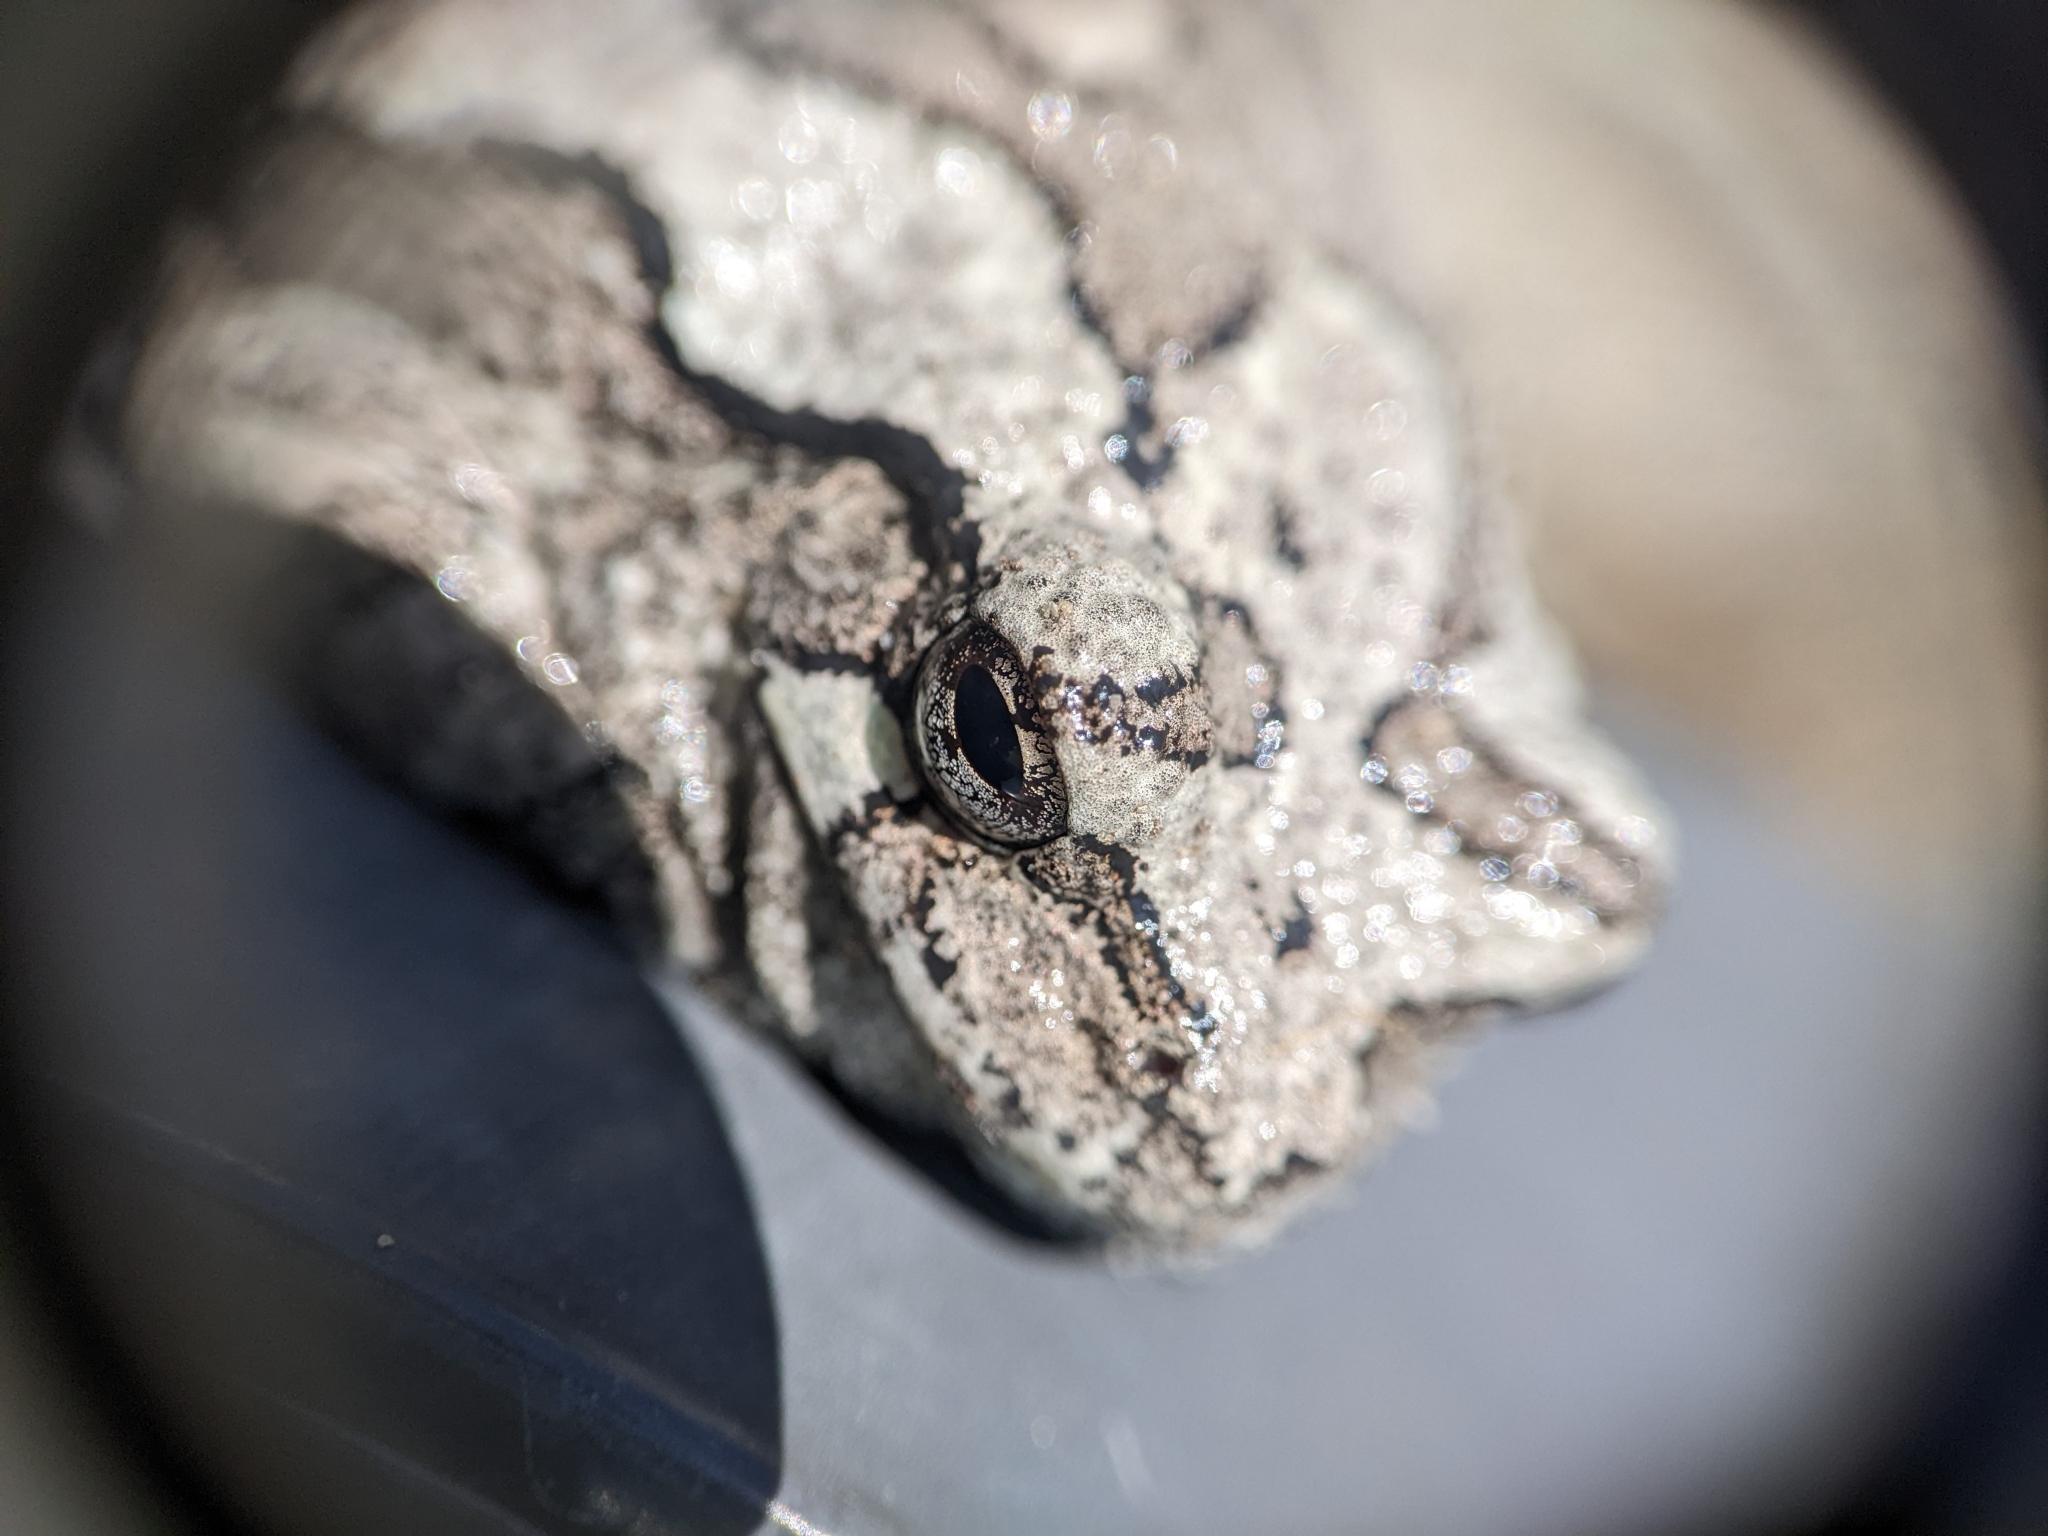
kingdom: Animalia
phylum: Chordata
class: Amphibia
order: Anura
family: Hylidae
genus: Dryophytes
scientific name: Dryophytes versicolor
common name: Gray treefrog
